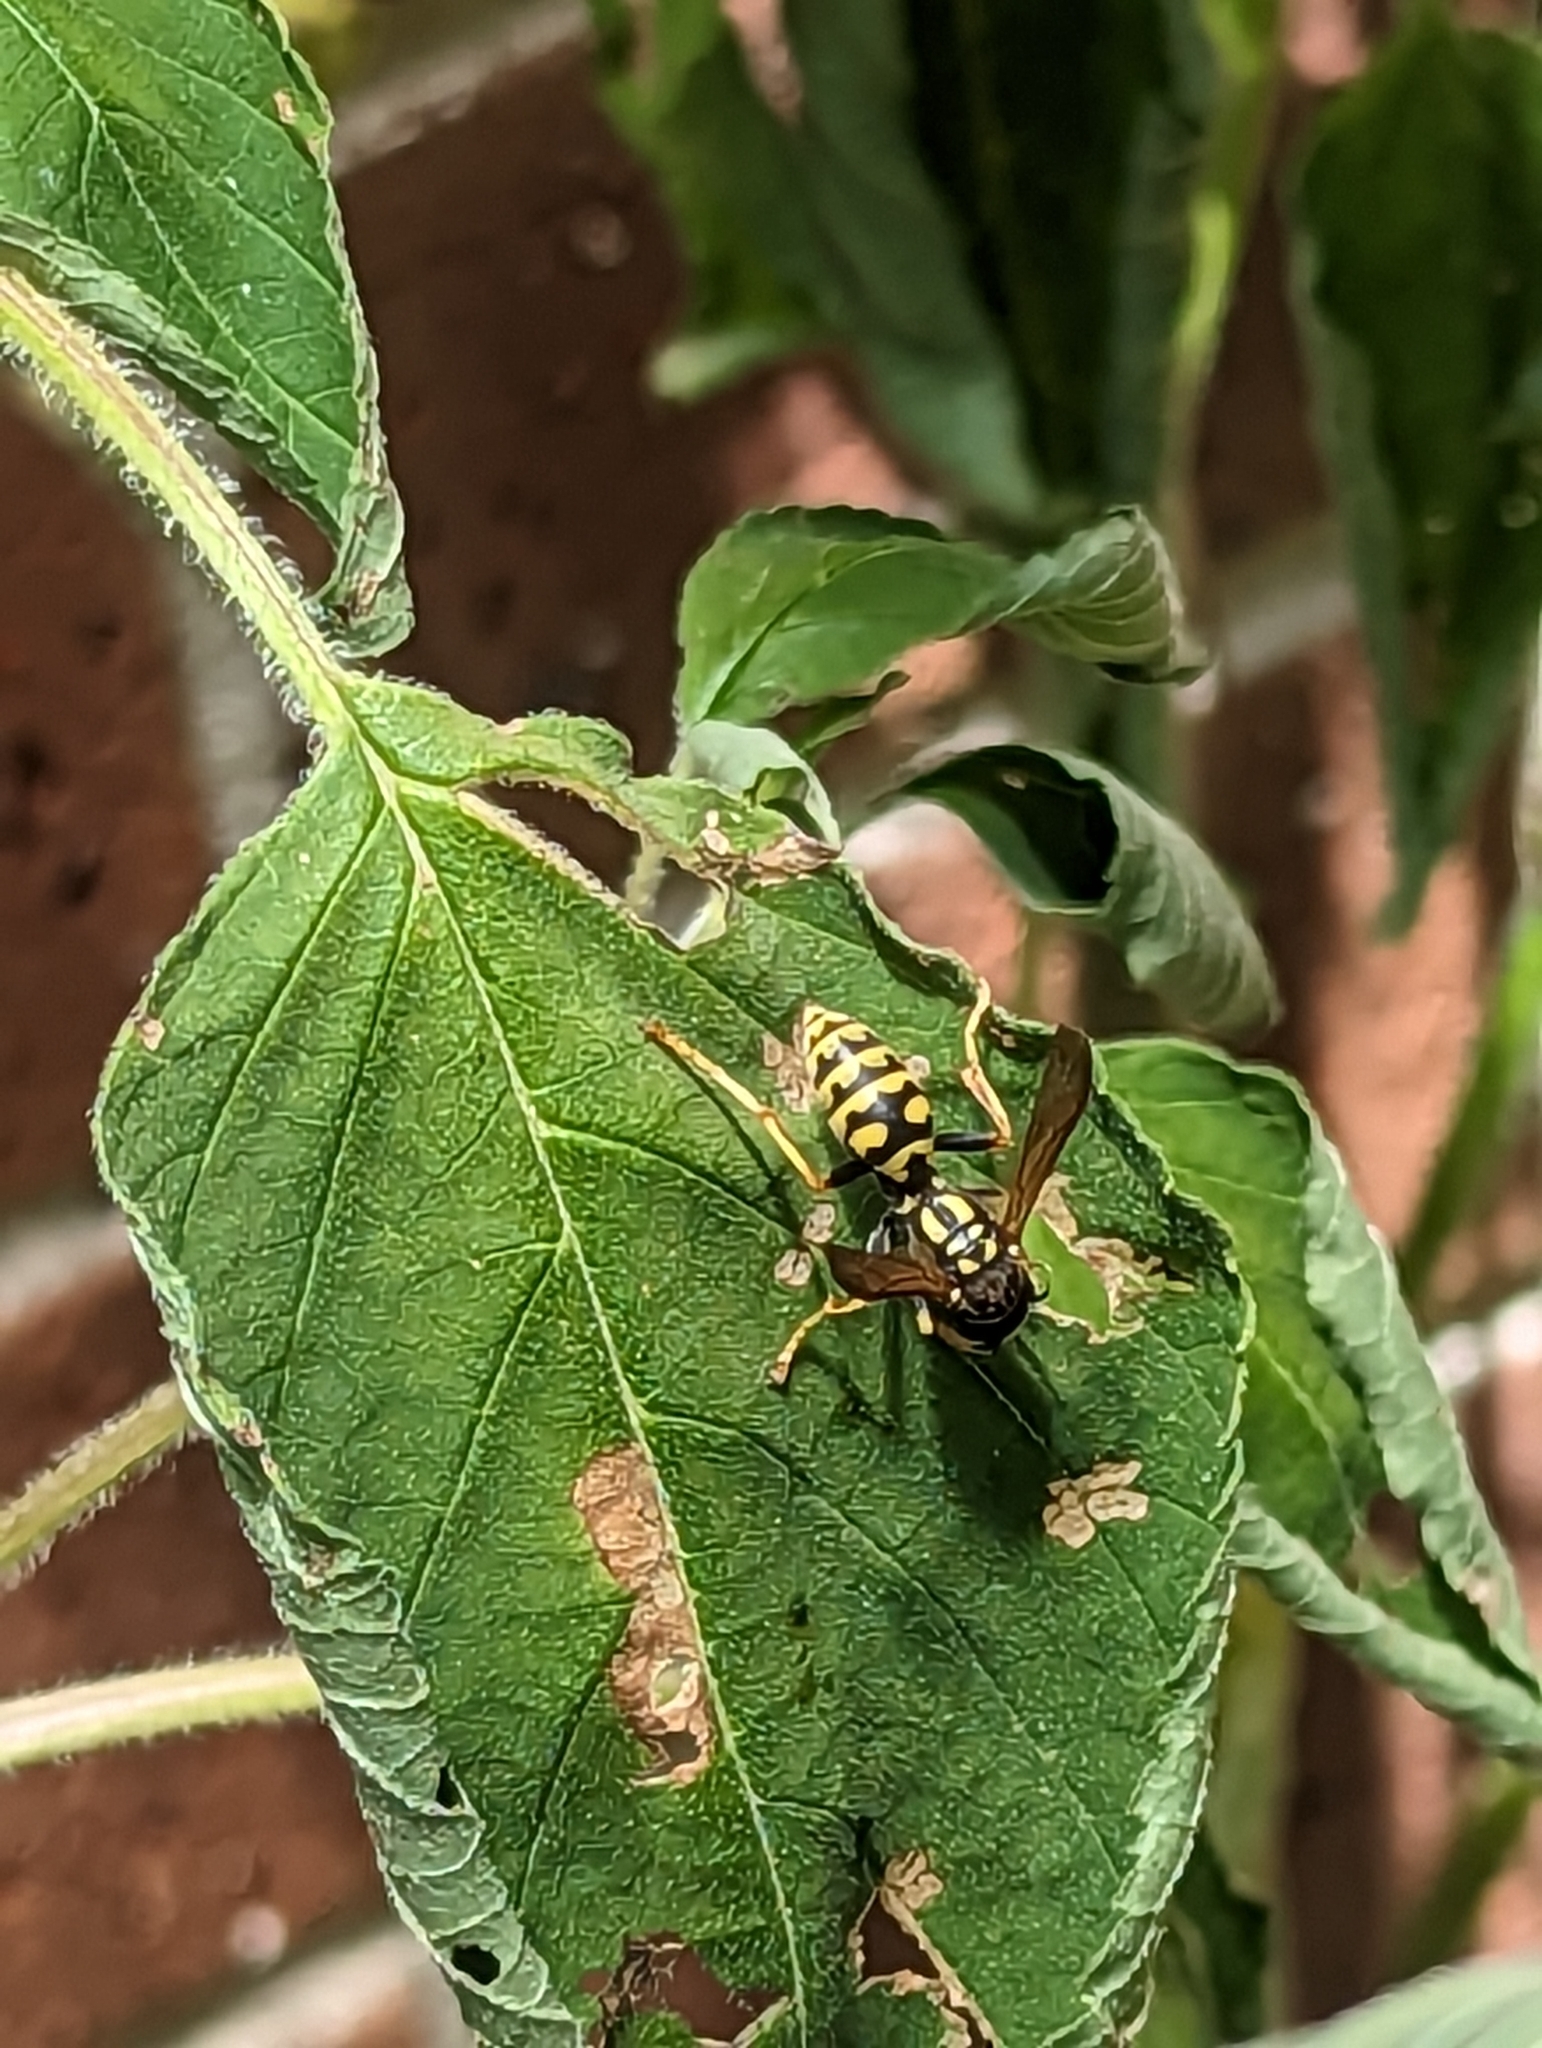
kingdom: Animalia
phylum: Arthropoda
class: Insecta
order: Hymenoptera
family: Eumenidae
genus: Polistes
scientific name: Polistes dominula
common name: Paper wasp
